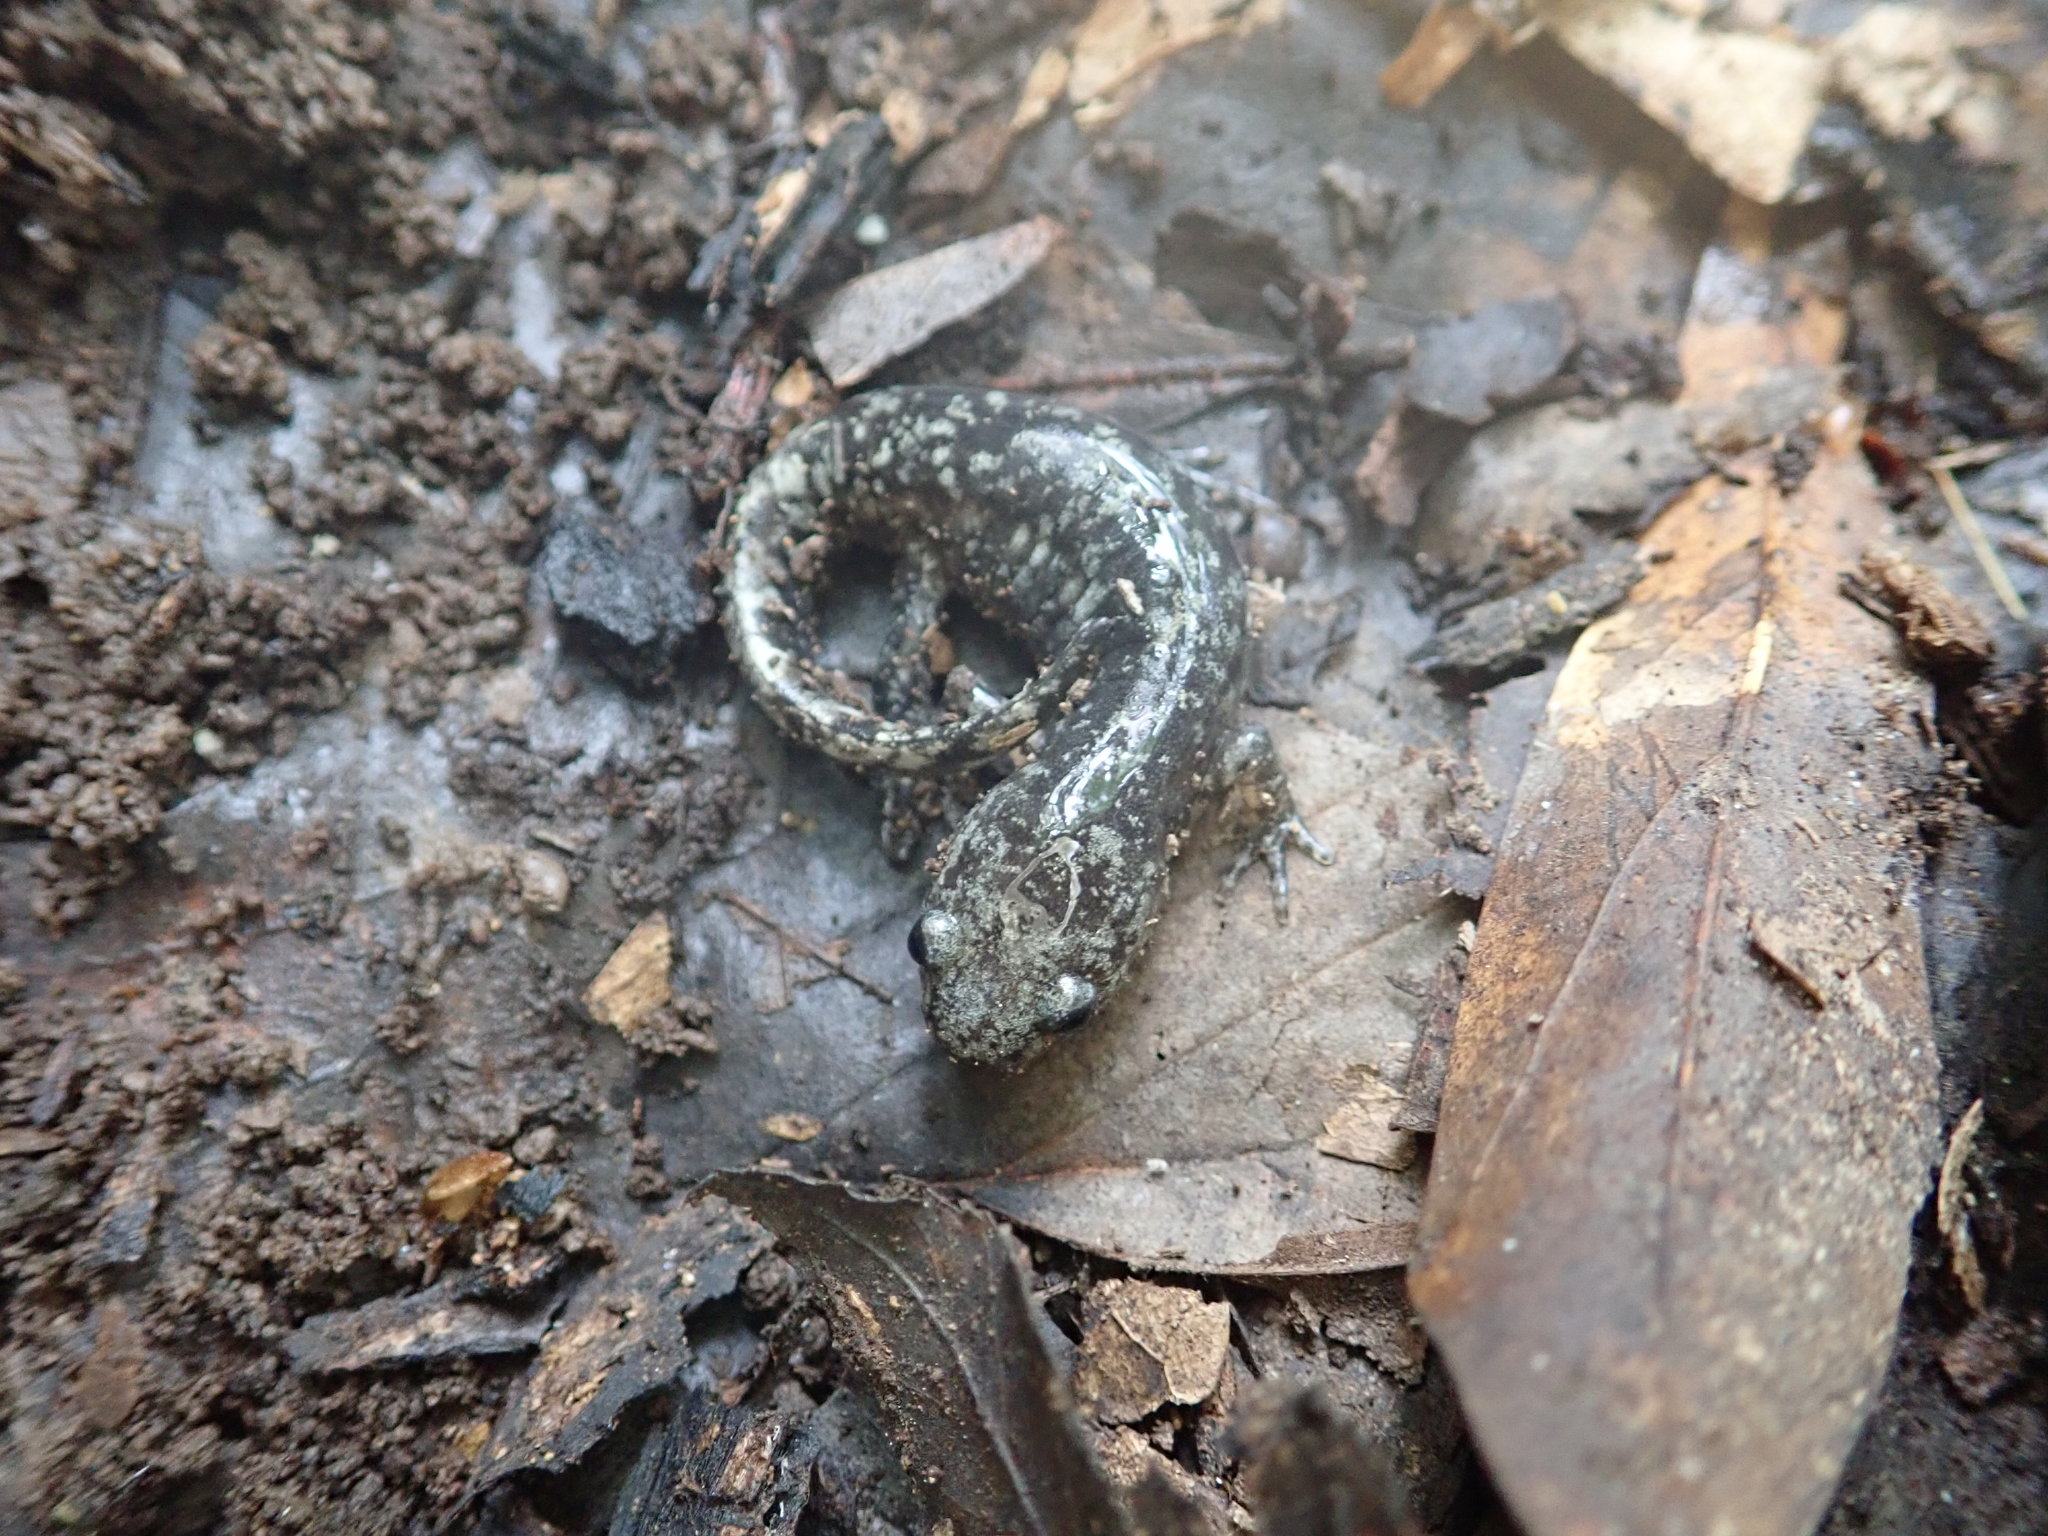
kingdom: Animalia
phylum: Chordata
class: Amphibia
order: Caudata
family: Ambystomatidae
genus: Ambystoma
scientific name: Ambystoma opacum
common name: Marbled salamander
